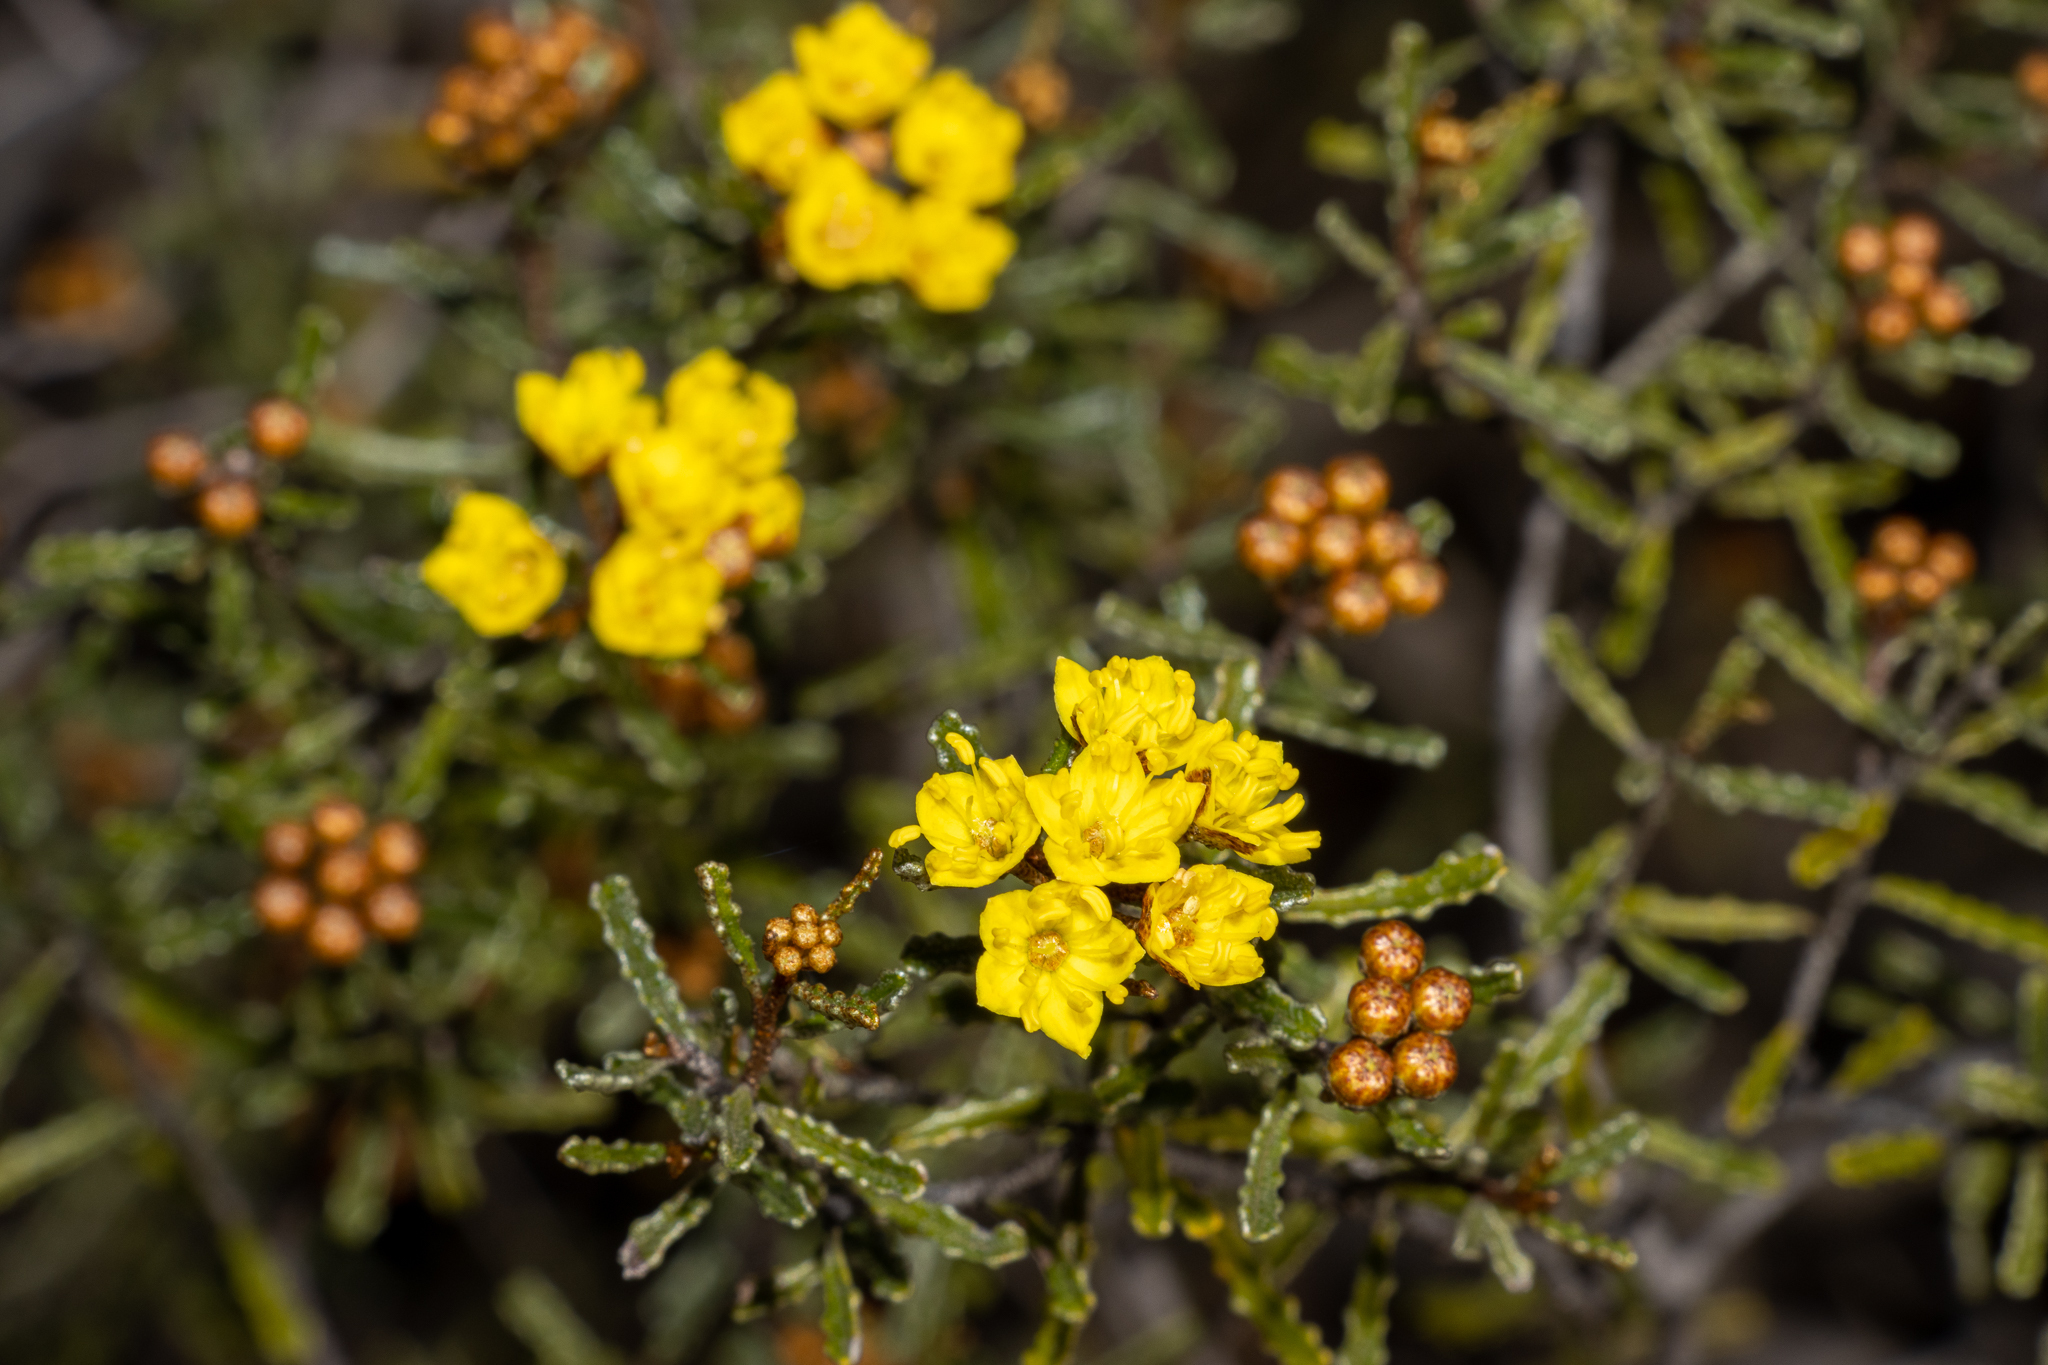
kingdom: Plantae
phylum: Tracheophyta
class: Magnoliopsida
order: Sapindales
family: Rutaceae
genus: Phebalium
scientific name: Phebalium bullatum
